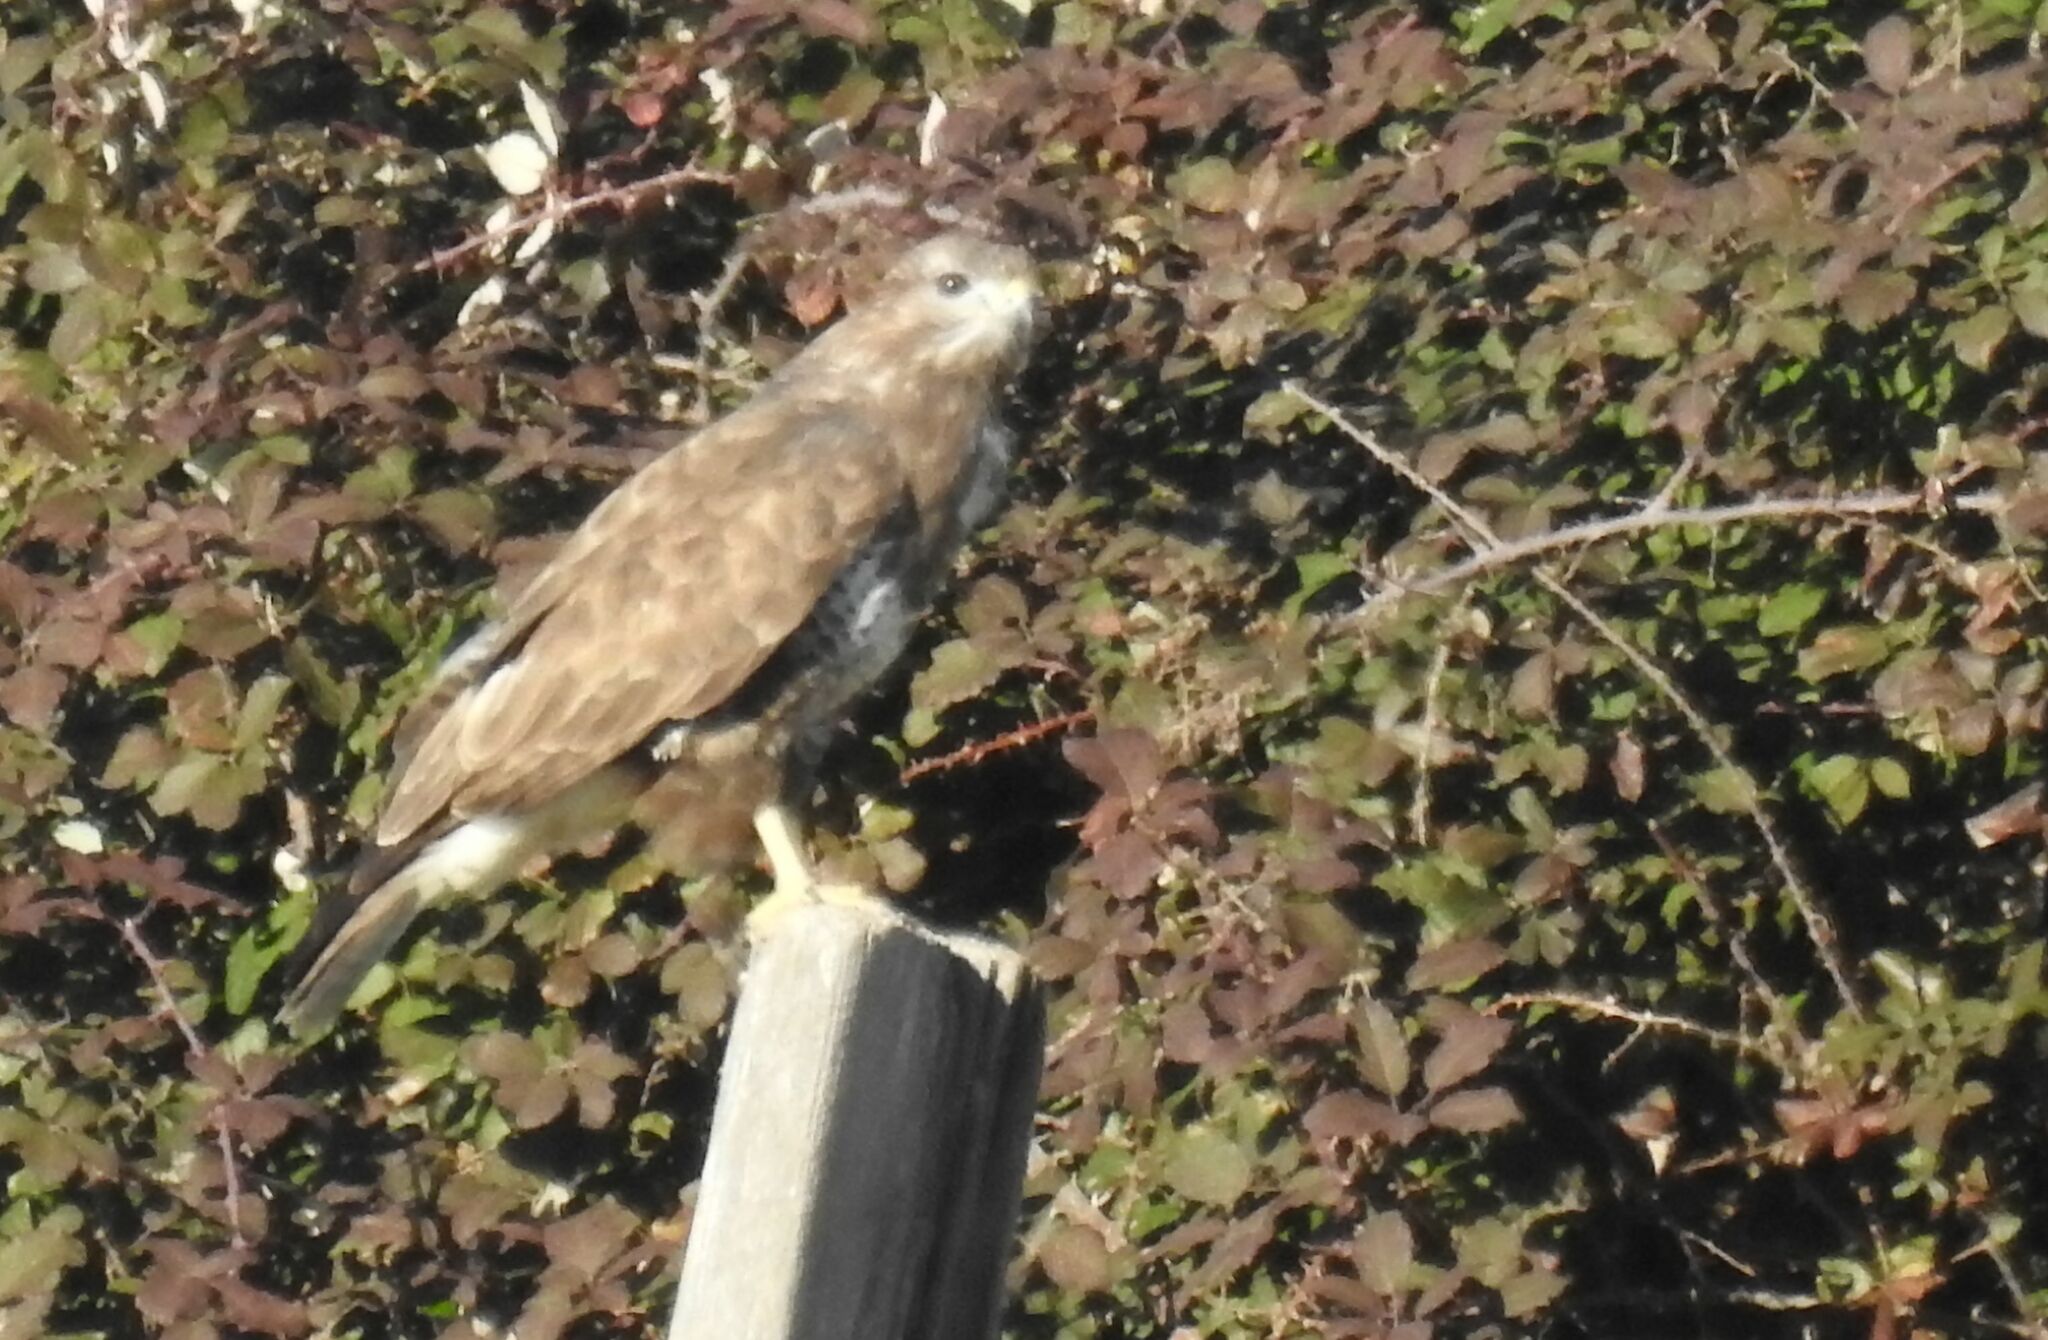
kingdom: Animalia
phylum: Chordata
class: Aves
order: Accipitriformes
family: Accipitridae
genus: Buteo
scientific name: Buteo buteo
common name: Common buzzard
